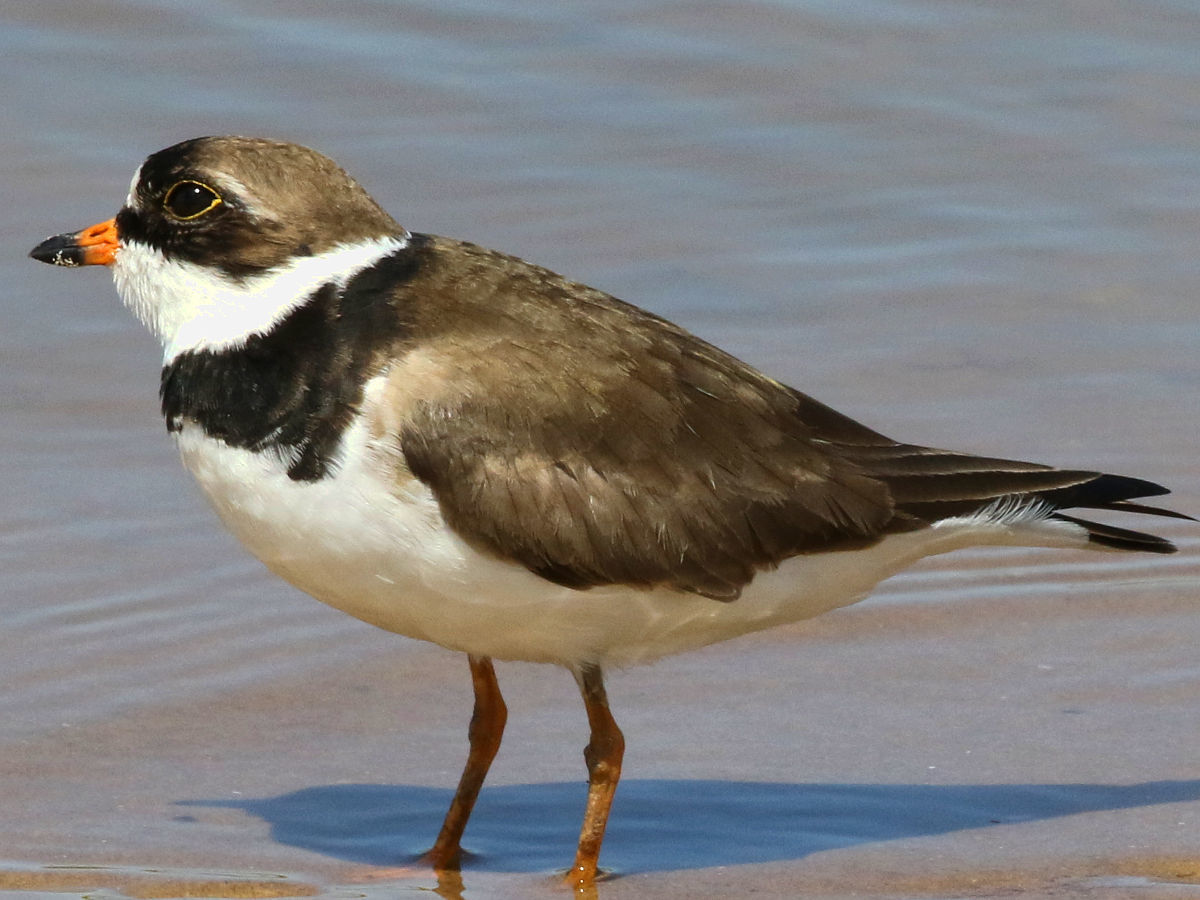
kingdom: Animalia
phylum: Chordata
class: Aves
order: Charadriiformes
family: Charadriidae
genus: Charadrius
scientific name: Charadrius semipalmatus
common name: Semipalmated plover
